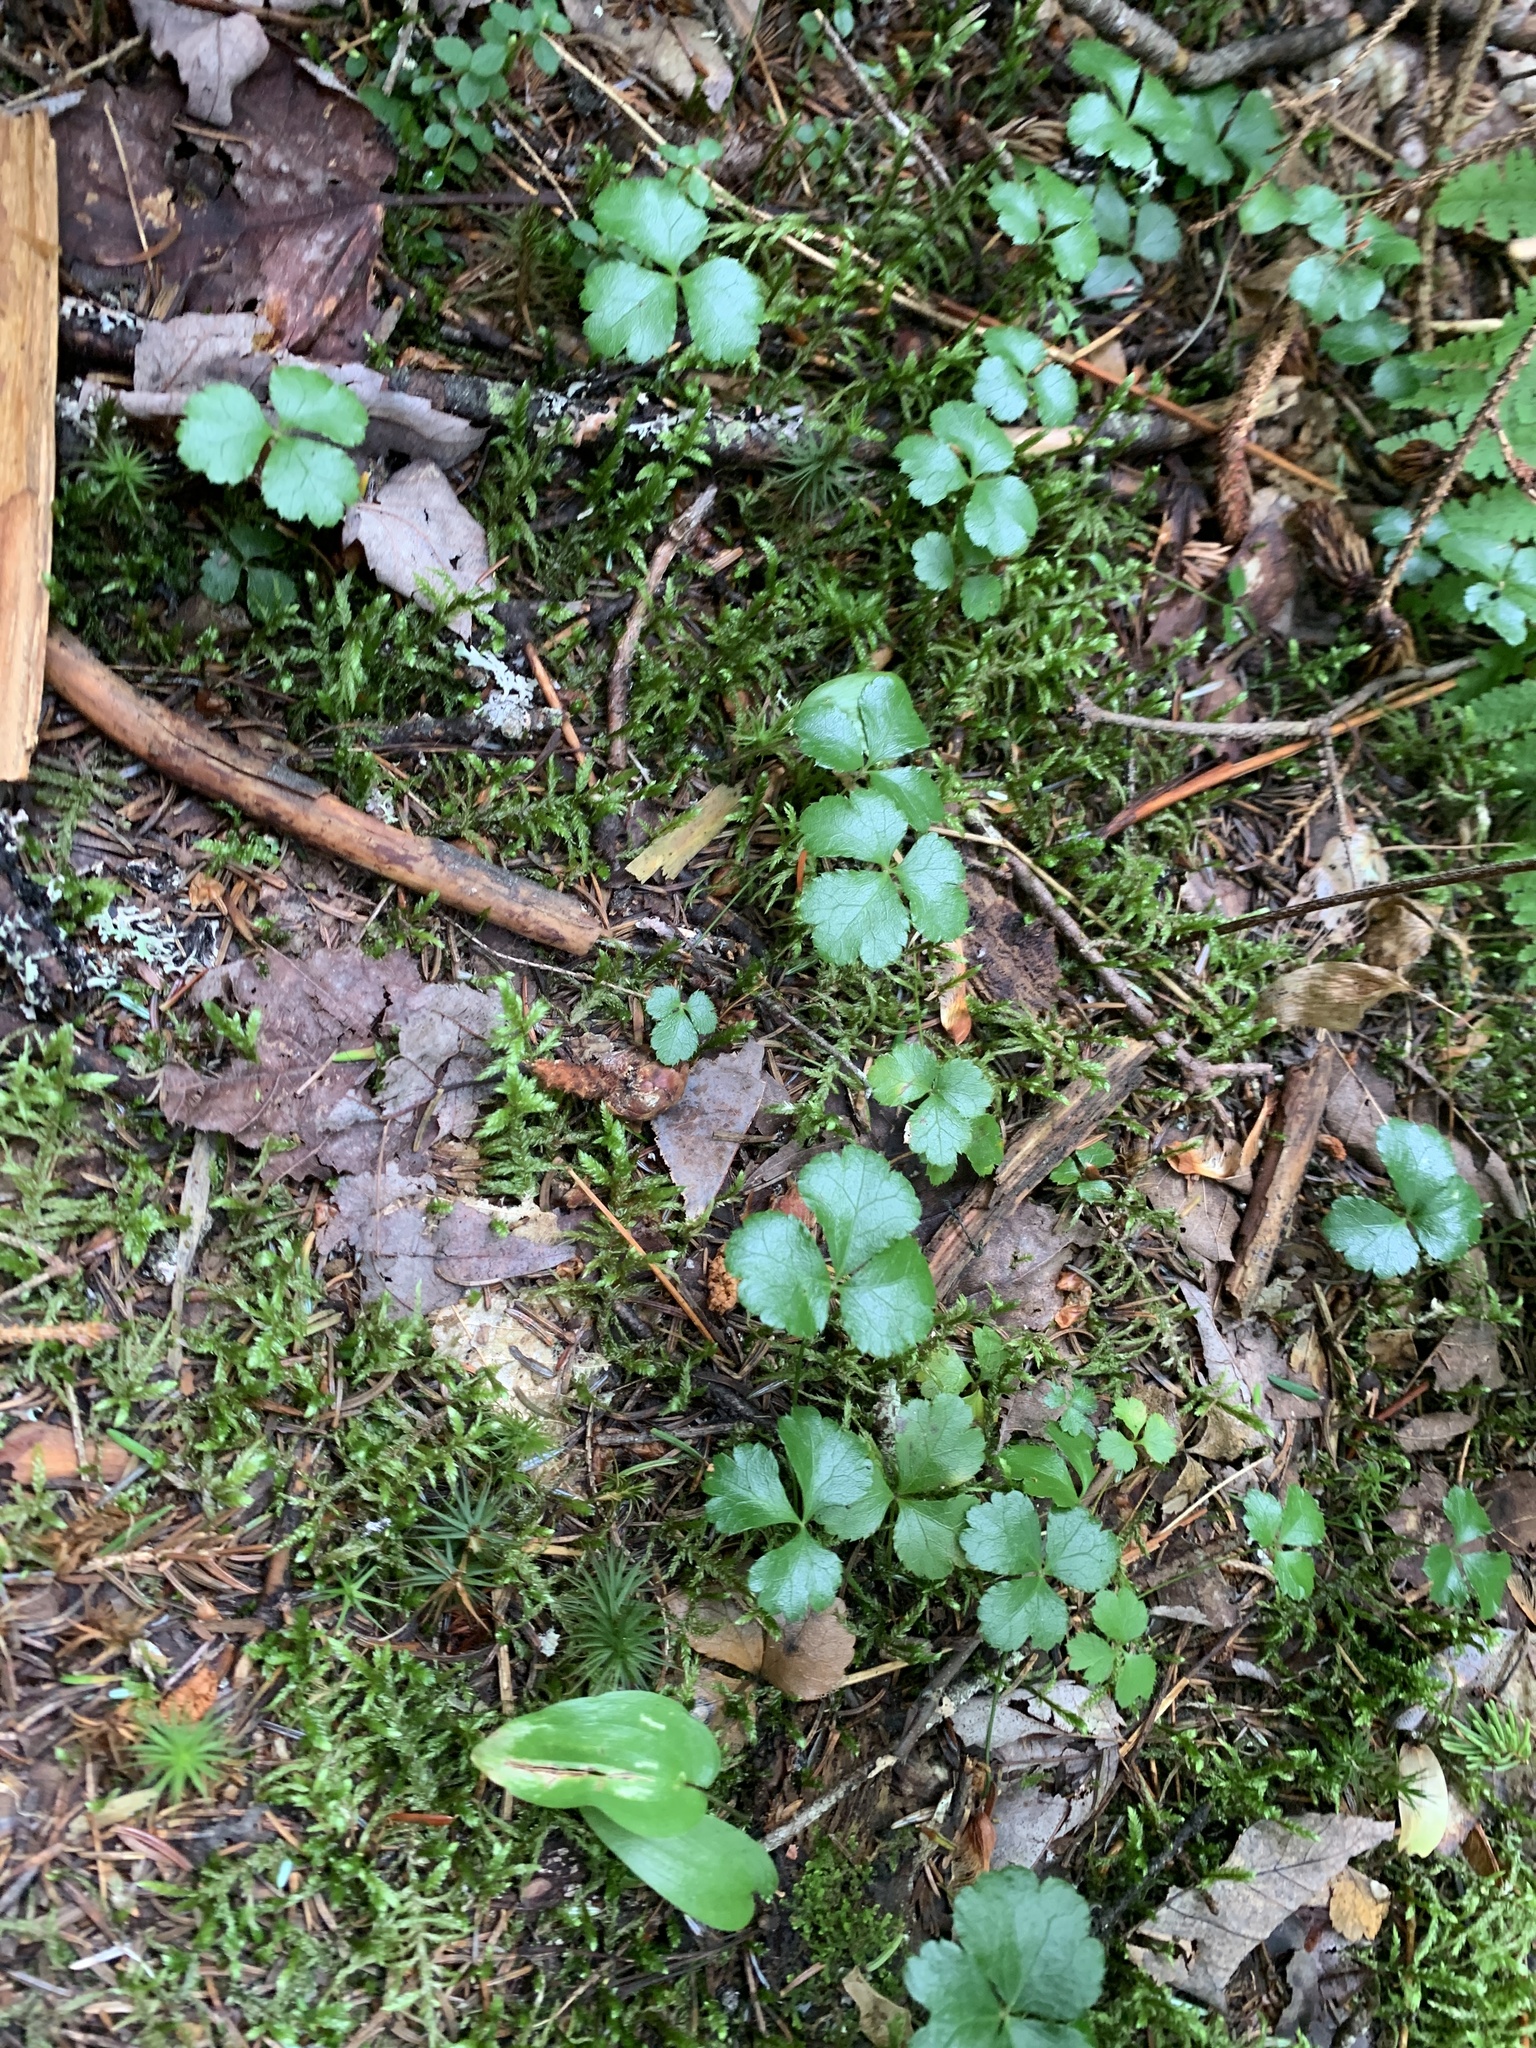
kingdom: Plantae
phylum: Tracheophyta
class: Magnoliopsida
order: Ranunculales
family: Ranunculaceae
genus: Coptis
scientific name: Coptis trifolia
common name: Canker-root
